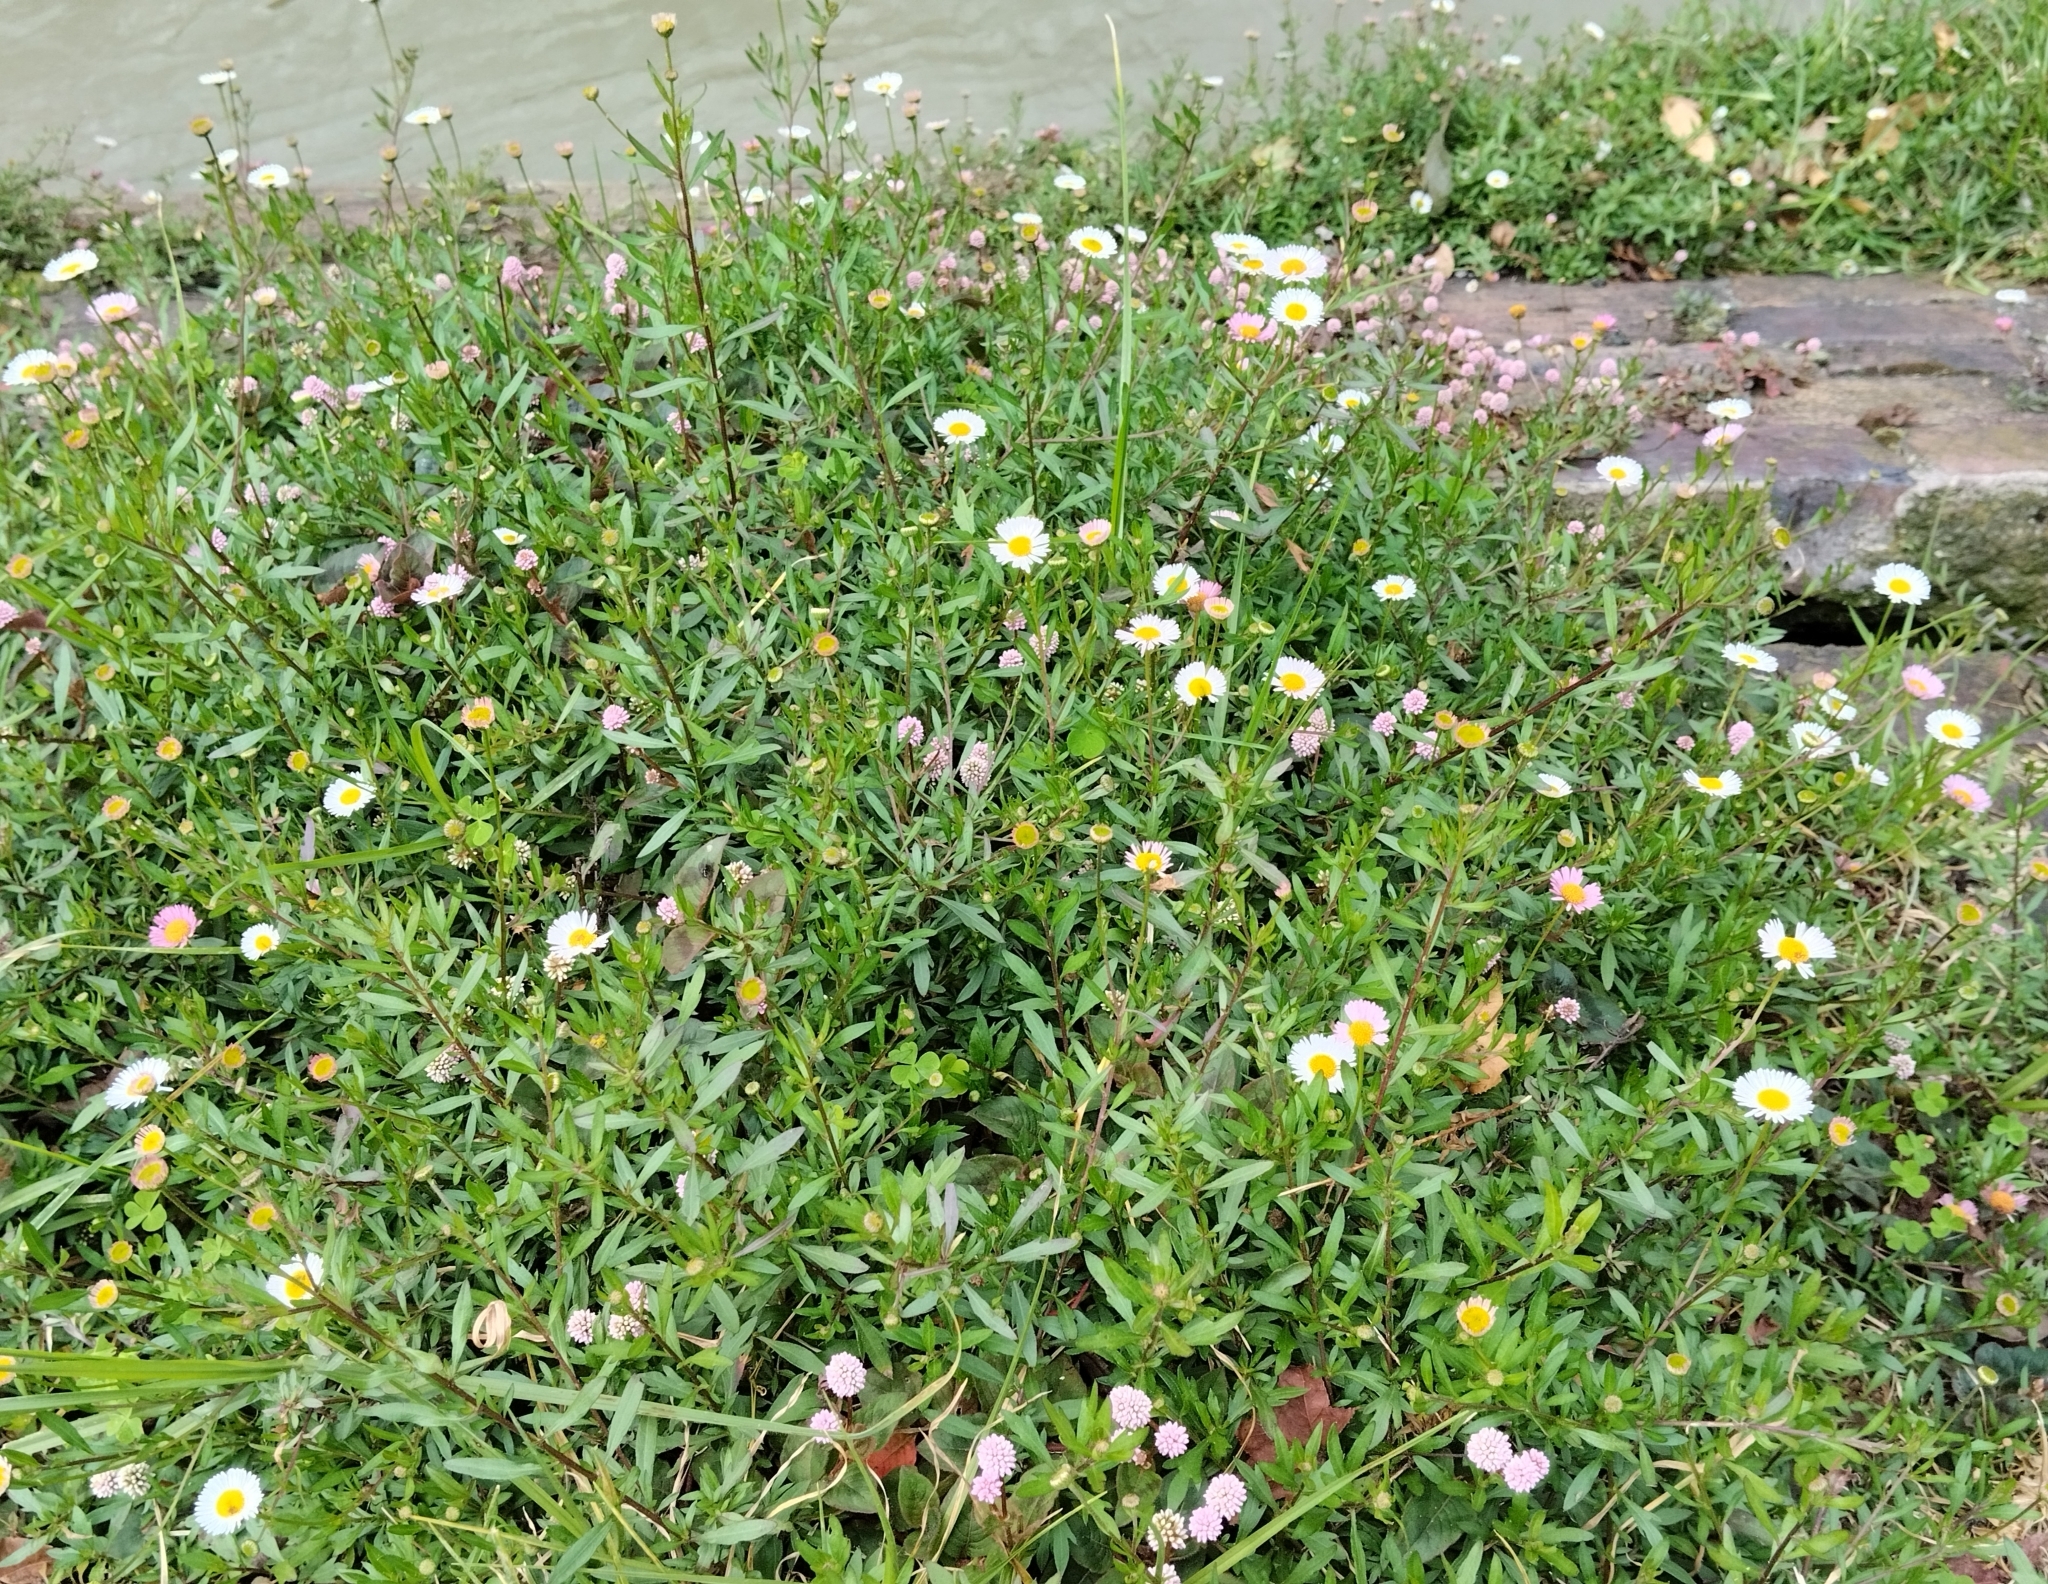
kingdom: Plantae
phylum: Tracheophyta
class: Magnoliopsida
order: Asterales
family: Asteraceae
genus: Erigeron
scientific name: Erigeron karvinskianus
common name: Mexican fleabane
